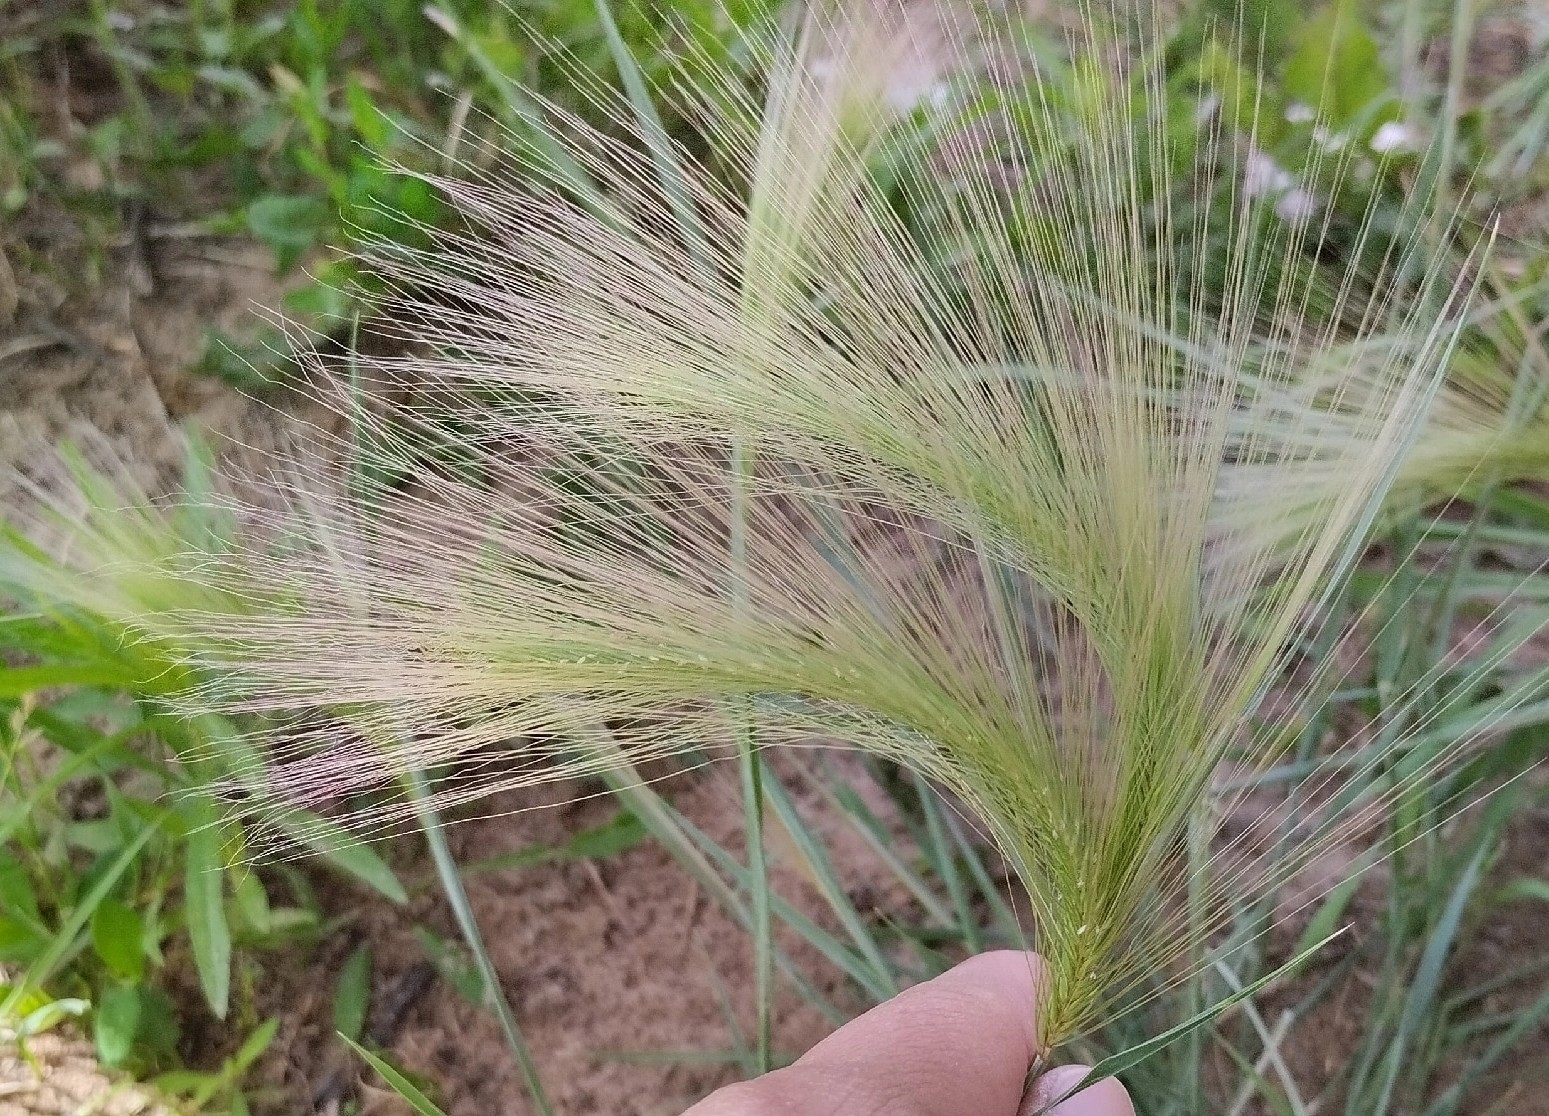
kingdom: Plantae
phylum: Tracheophyta
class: Liliopsida
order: Poales
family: Poaceae
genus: Hordeum
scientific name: Hordeum jubatum
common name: Foxtail barley
